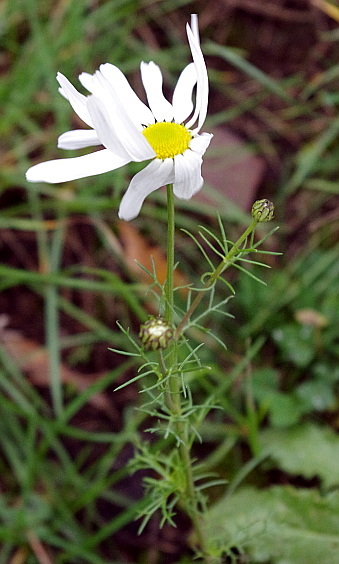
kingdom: Plantae
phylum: Tracheophyta
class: Magnoliopsida
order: Asterales
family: Asteraceae
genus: Tripleurospermum
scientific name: Tripleurospermum inodorum
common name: Scentless mayweed
